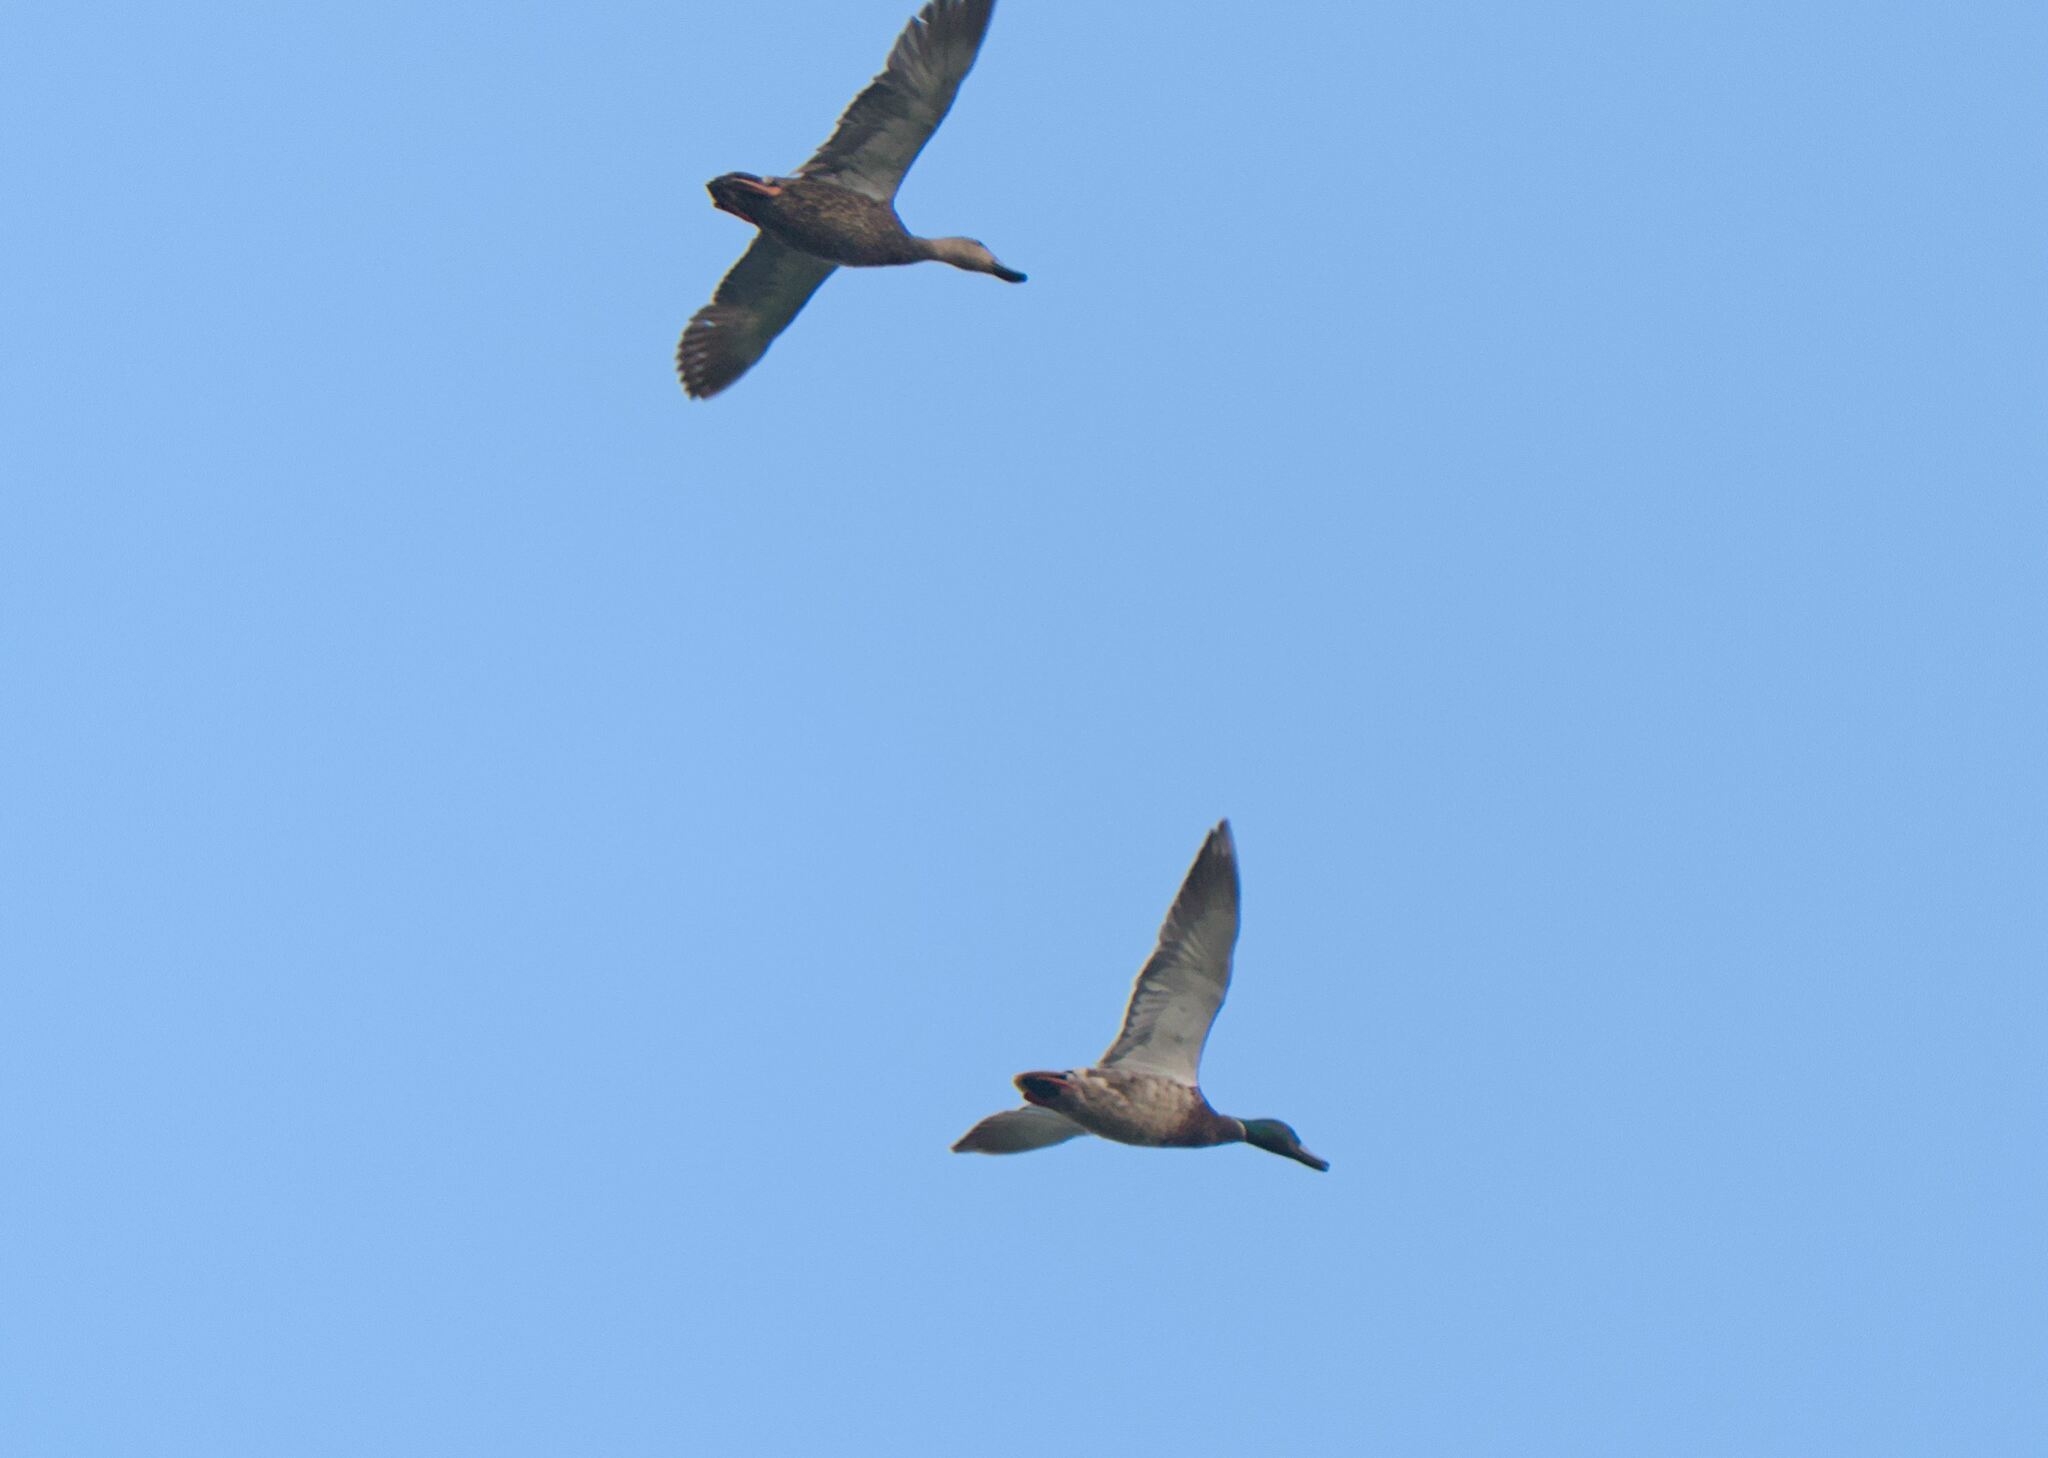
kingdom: Animalia
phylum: Chordata
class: Aves
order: Anseriformes
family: Anatidae
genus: Anas
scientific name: Anas platyrhynchos
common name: Mallard
